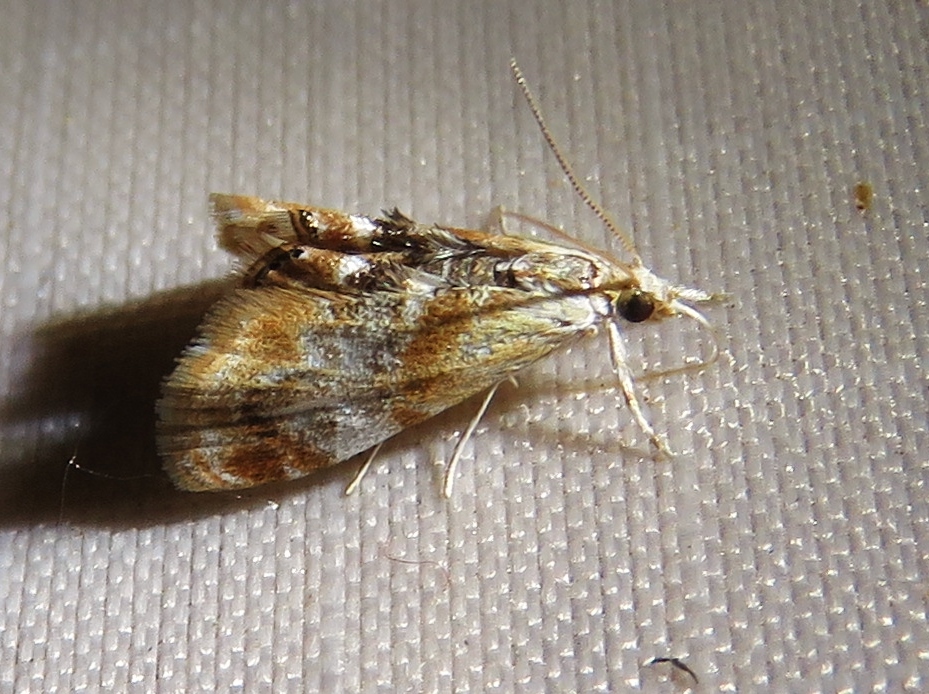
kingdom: Animalia
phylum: Arthropoda
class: Insecta
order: Lepidoptera
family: Crambidae
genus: Dicymolomia
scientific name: Dicymolomia julianalis
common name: Julia's dicymolomia moth
